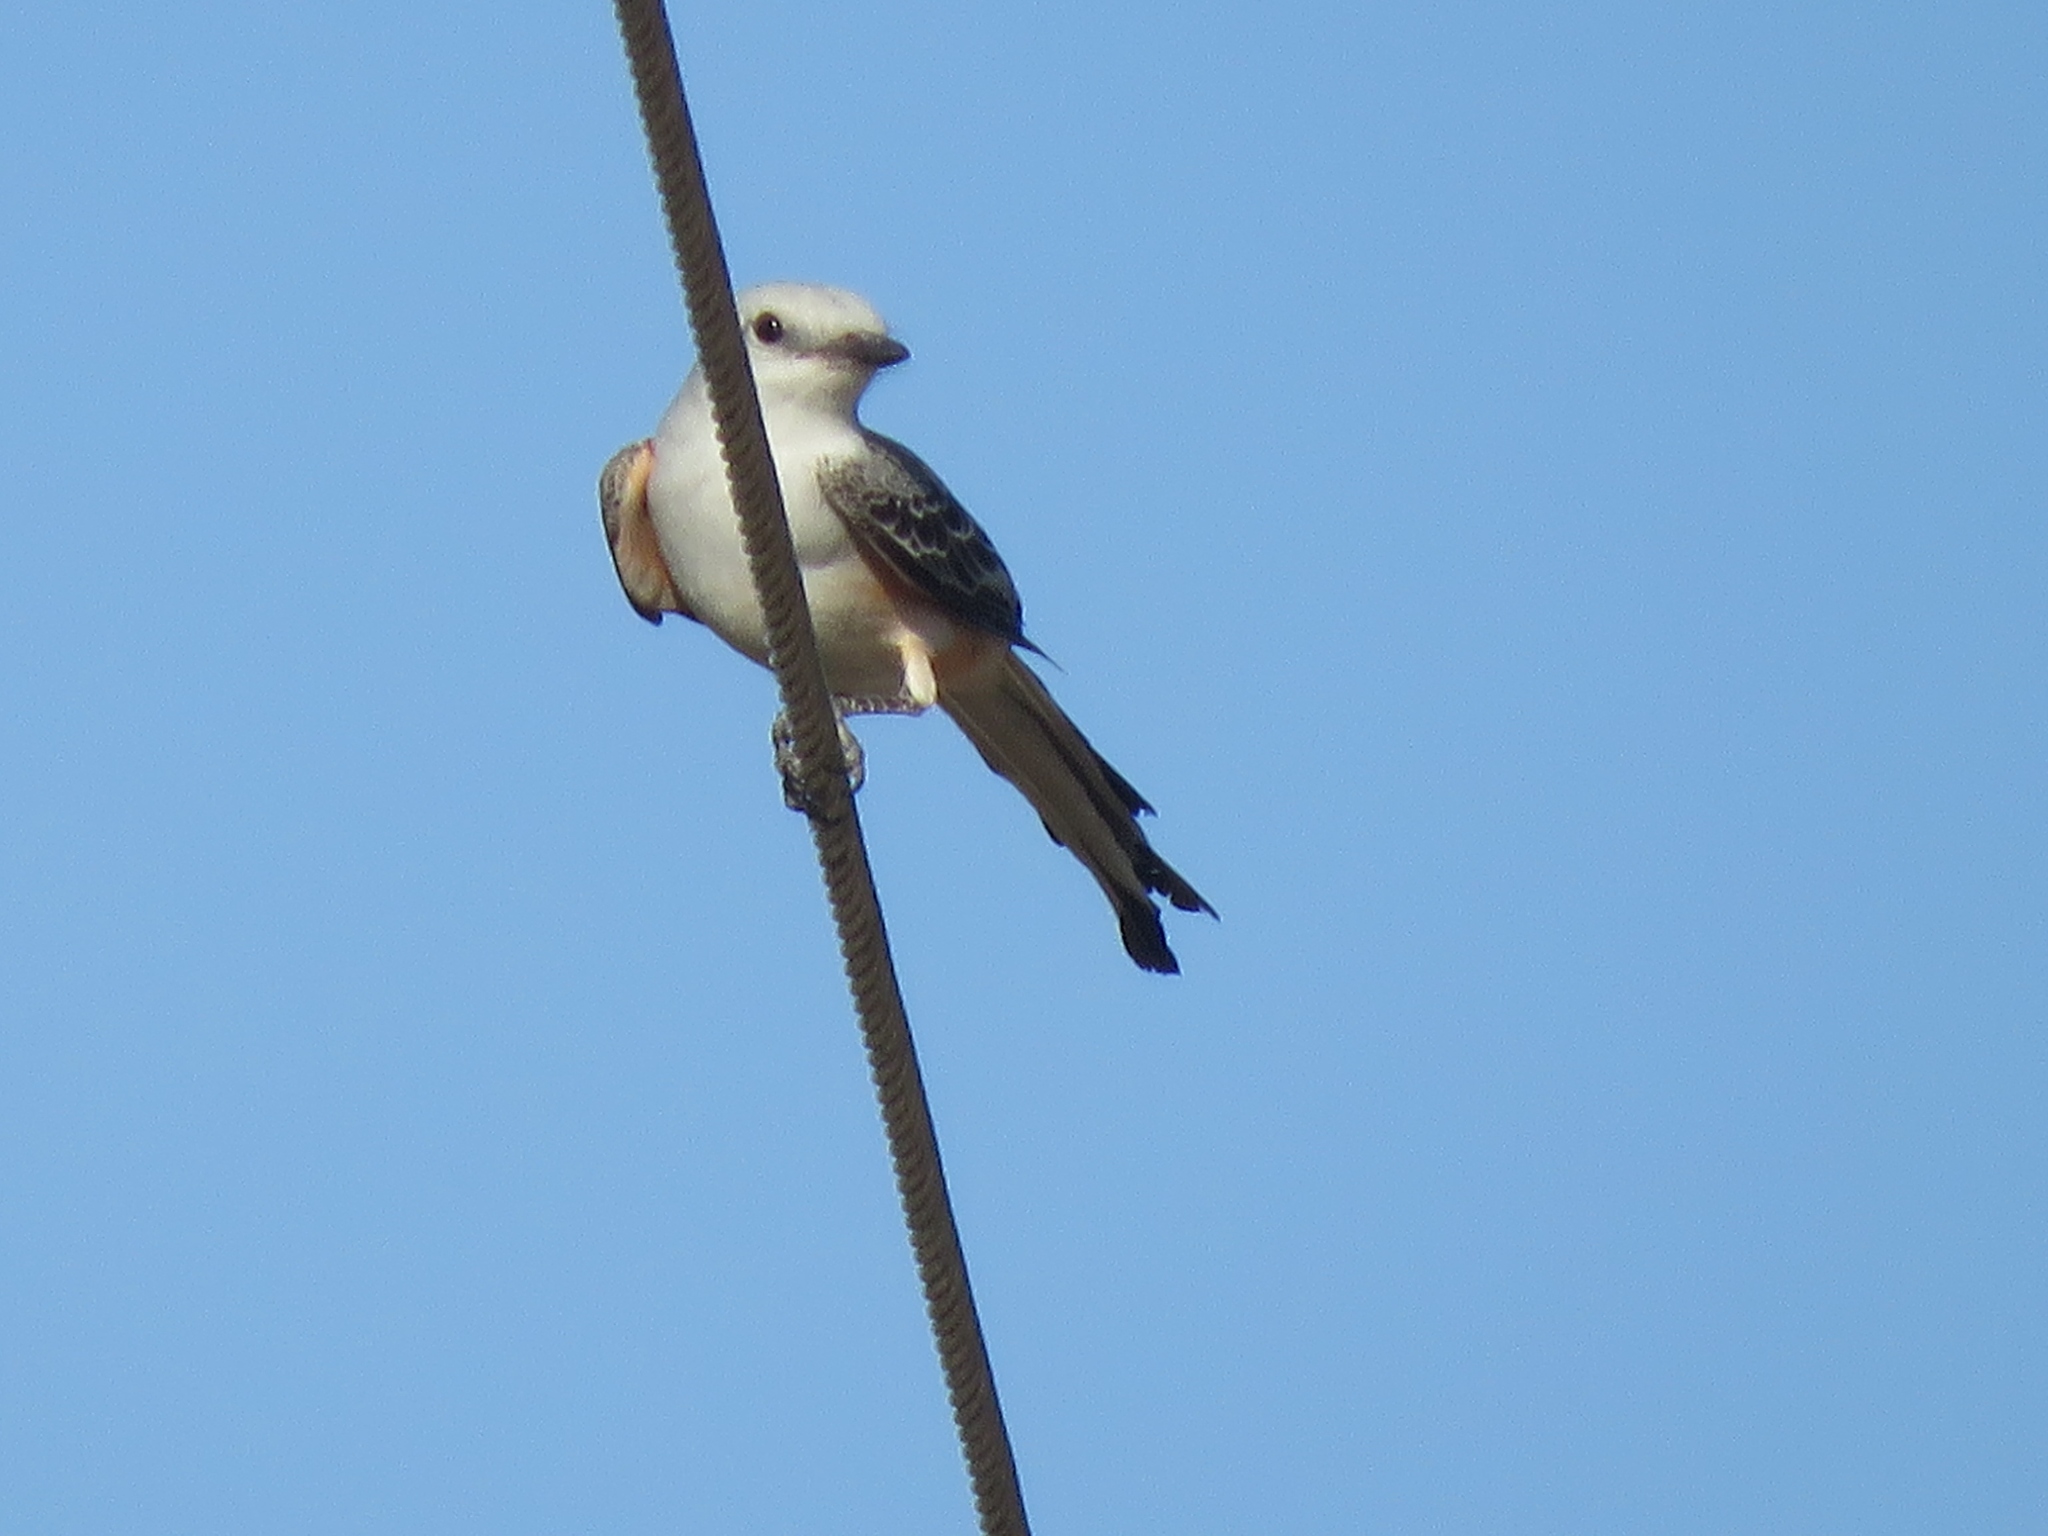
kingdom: Animalia
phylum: Chordata
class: Aves
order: Passeriformes
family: Tyrannidae
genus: Tyrannus
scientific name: Tyrannus forficatus
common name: Scissor-tailed flycatcher
